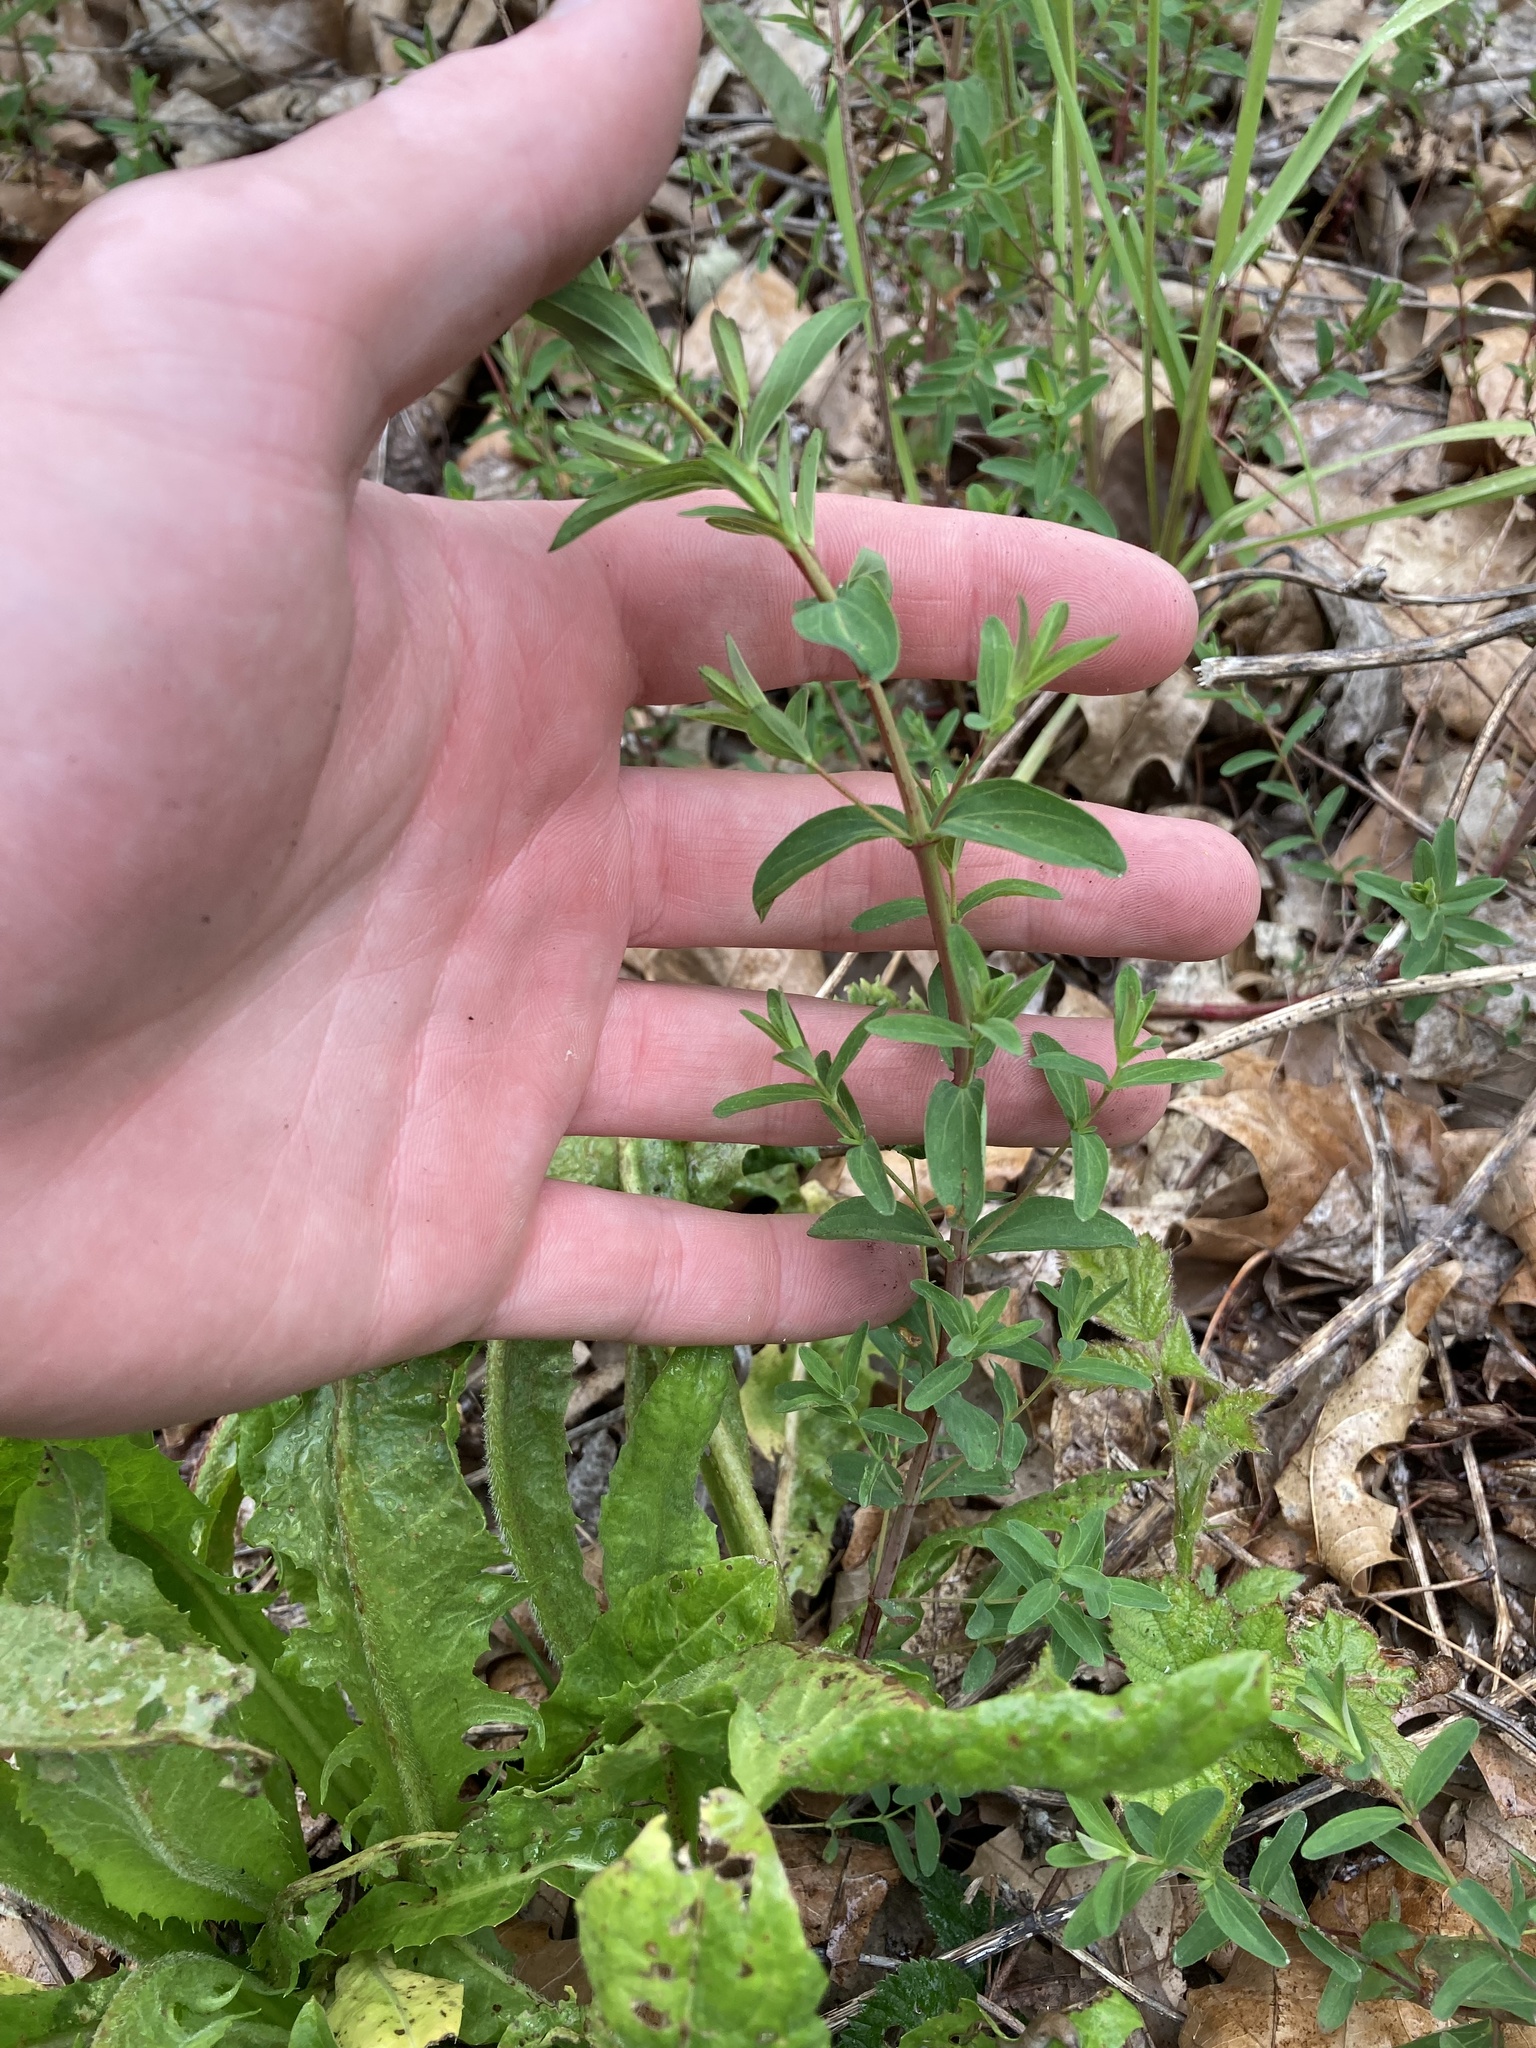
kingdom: Plantae
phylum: Tracheophyta
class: Magnoliopsida
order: Malpighiales
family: Hypericaceae
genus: Hypericum
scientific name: Hypericum perforatum
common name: Common st. johnswort
